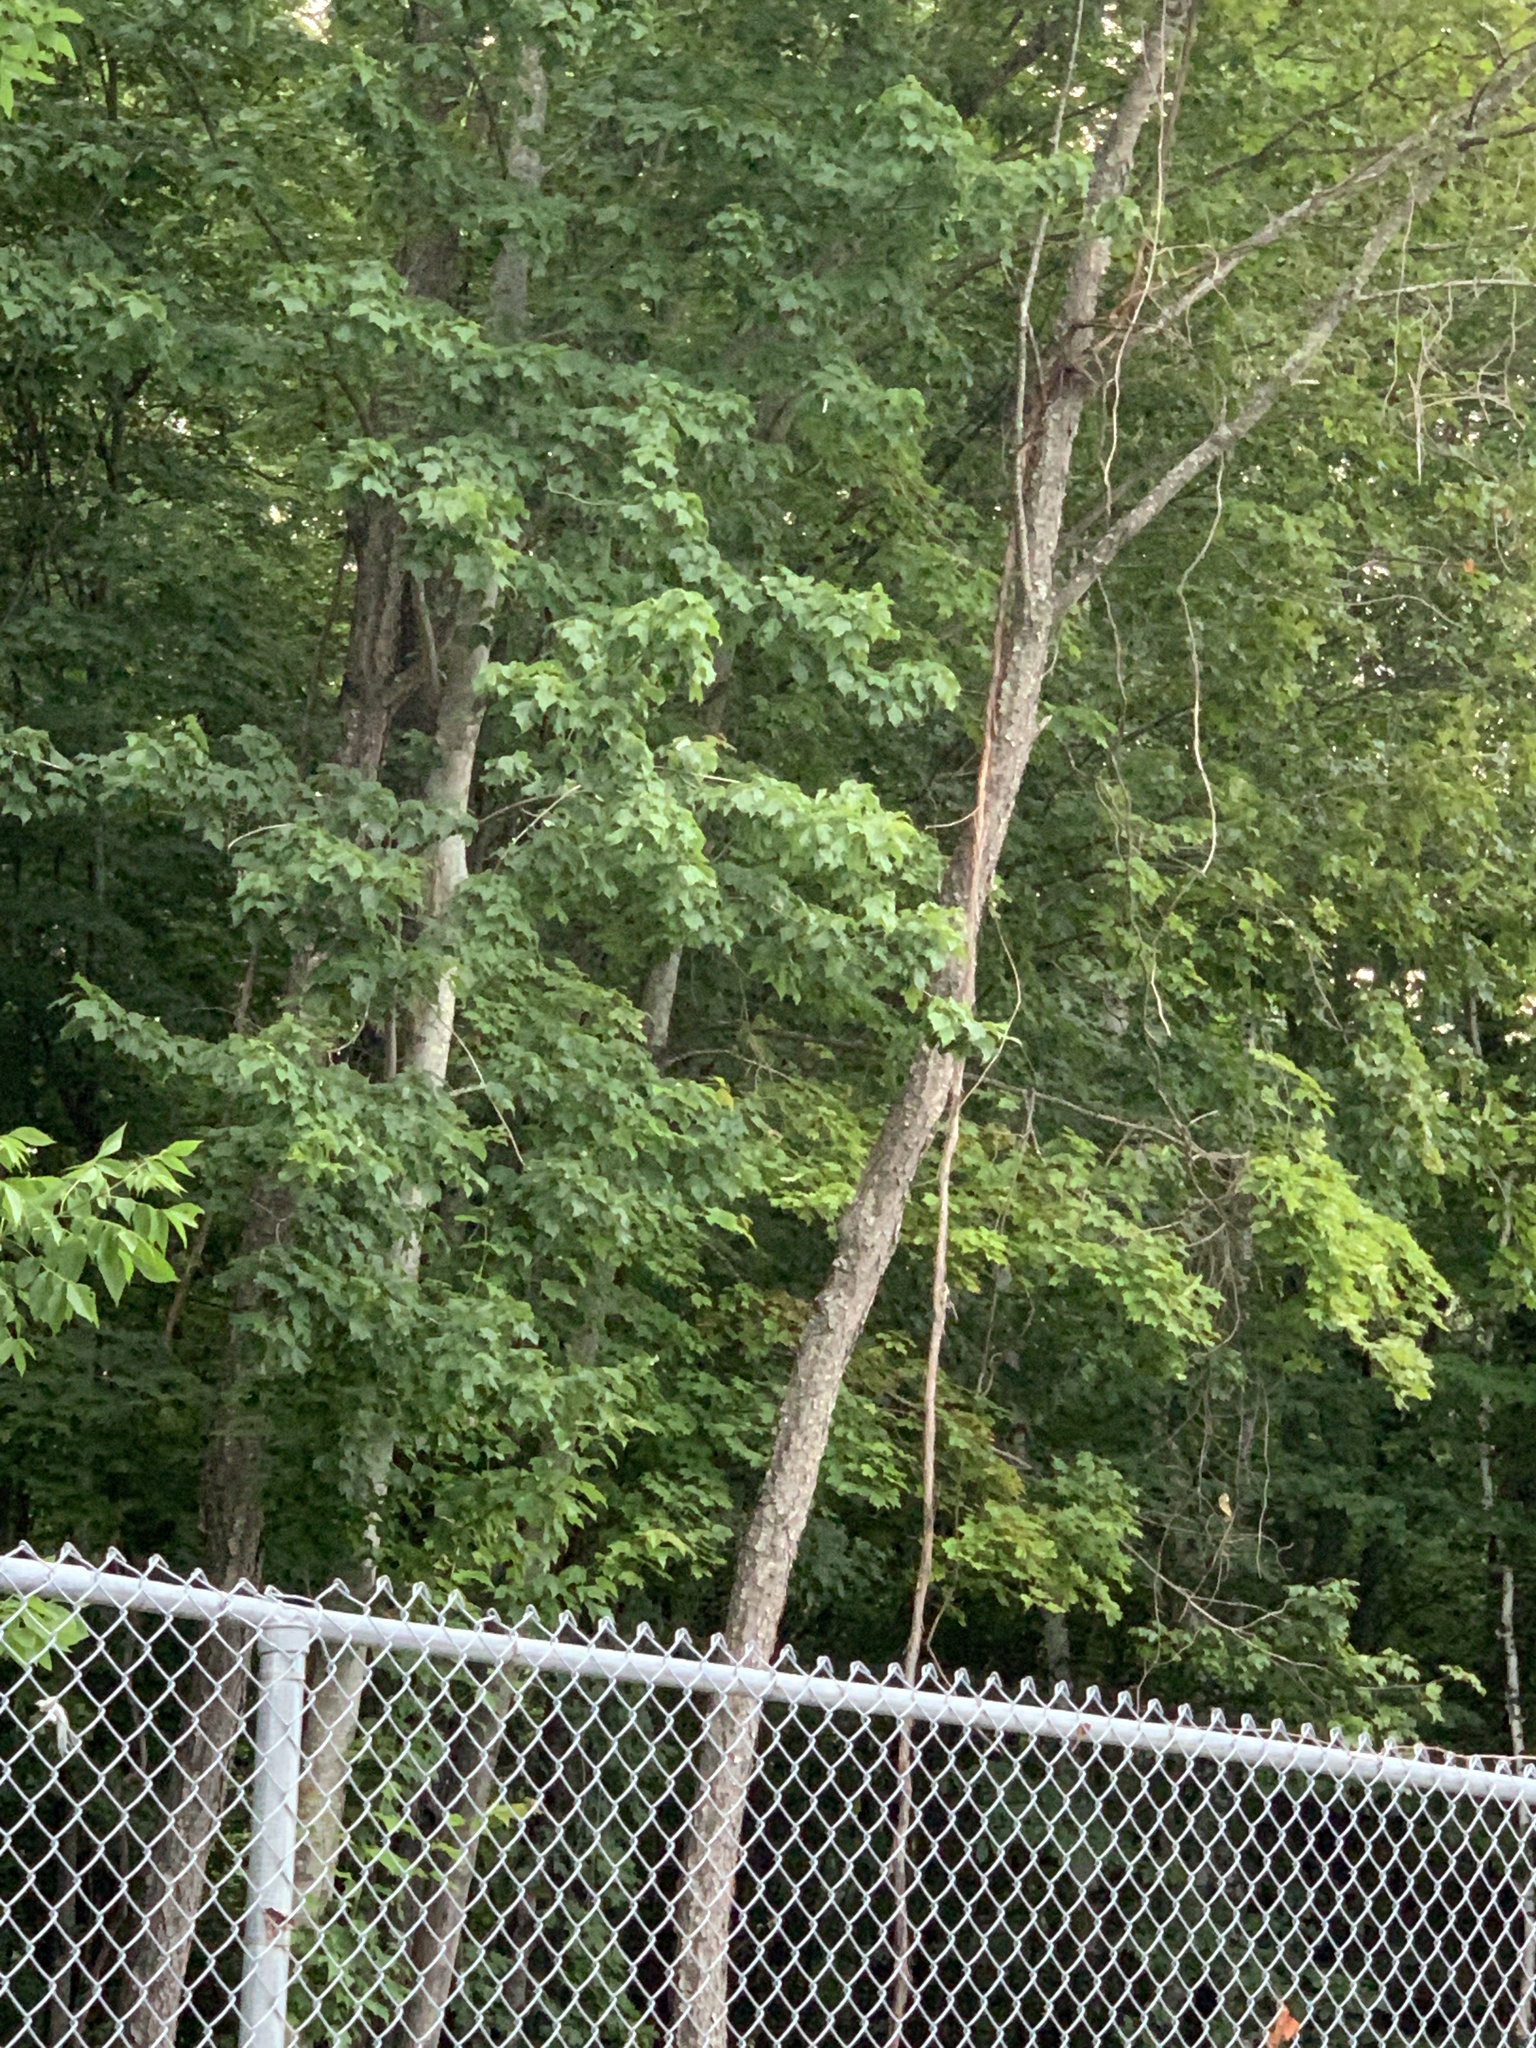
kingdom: Plantae
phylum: Tracheophyta
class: Magnoliopsida
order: Rosales
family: Rosaceae
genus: Prunus
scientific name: Prunus serotina
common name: Black cherry
